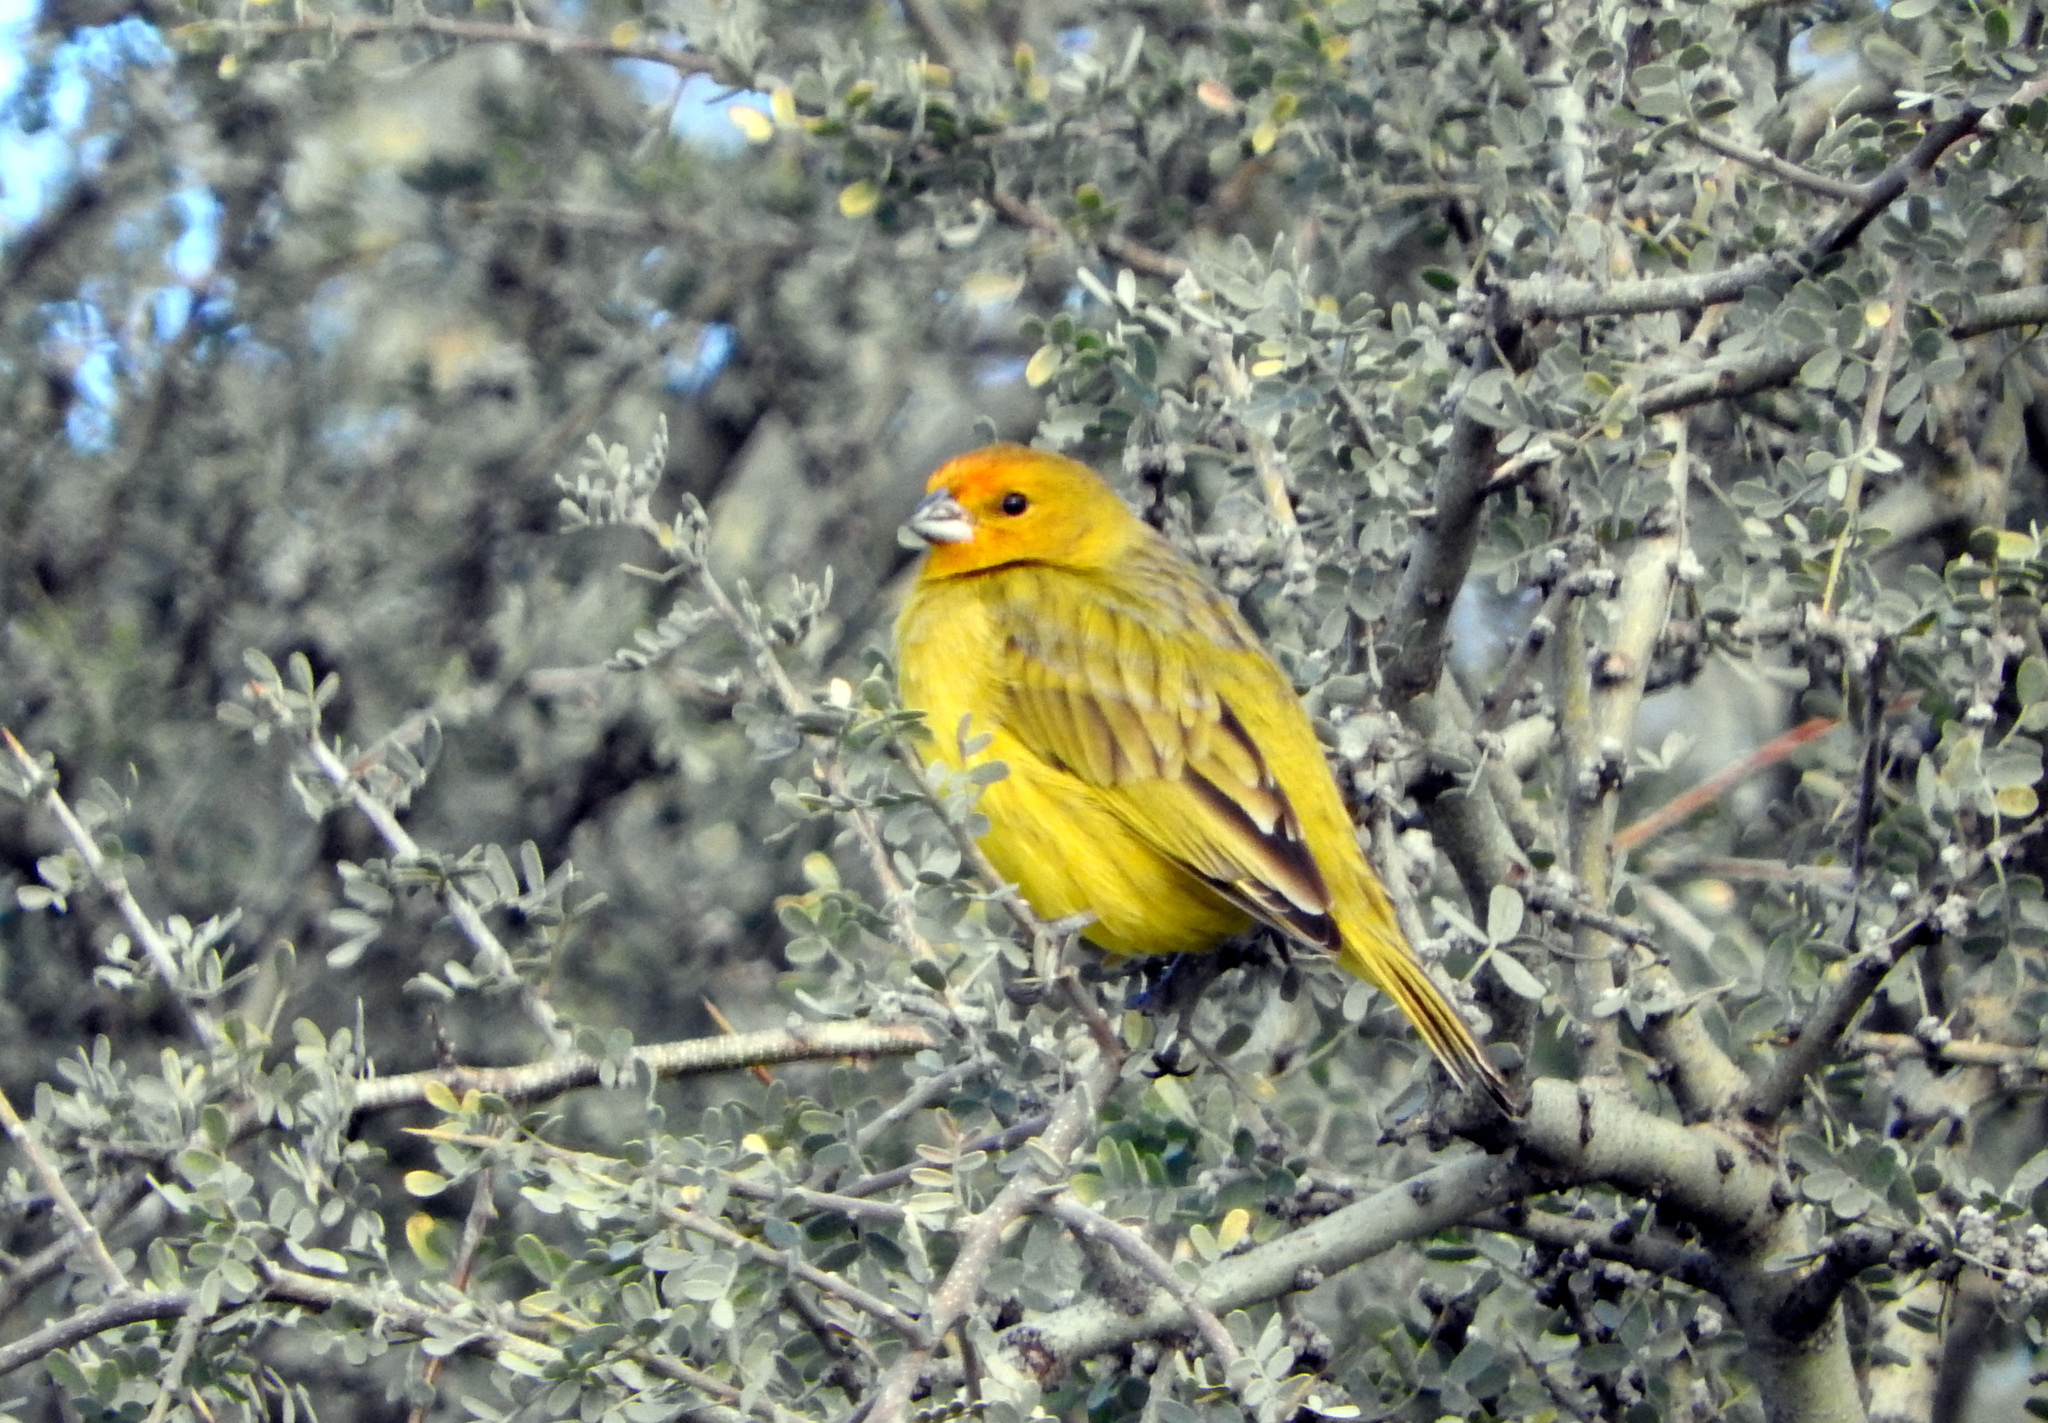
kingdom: Animalia
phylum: Chordata
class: Aves
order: Passeriformes
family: Thraupidae
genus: Sicalis
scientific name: Sicalis flaveola
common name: Saffron finch
